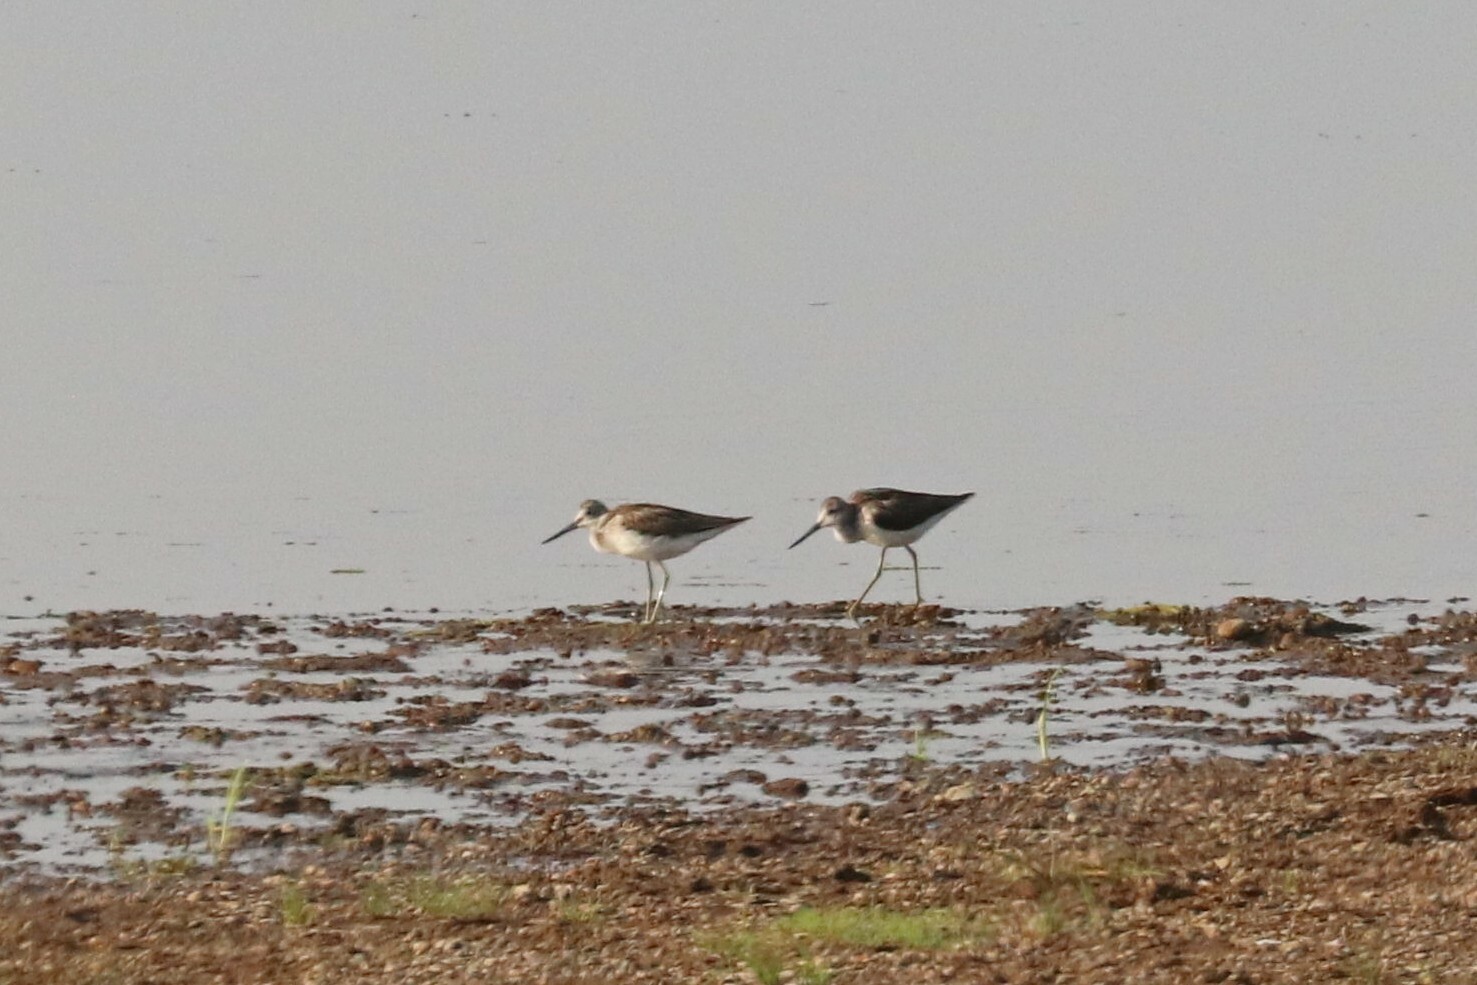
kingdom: Animalia
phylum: Chordata
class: Aves
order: Charadriiformes
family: Scolopacidae
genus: Tringa
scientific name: Tringa nebularia
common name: Common greenshank
